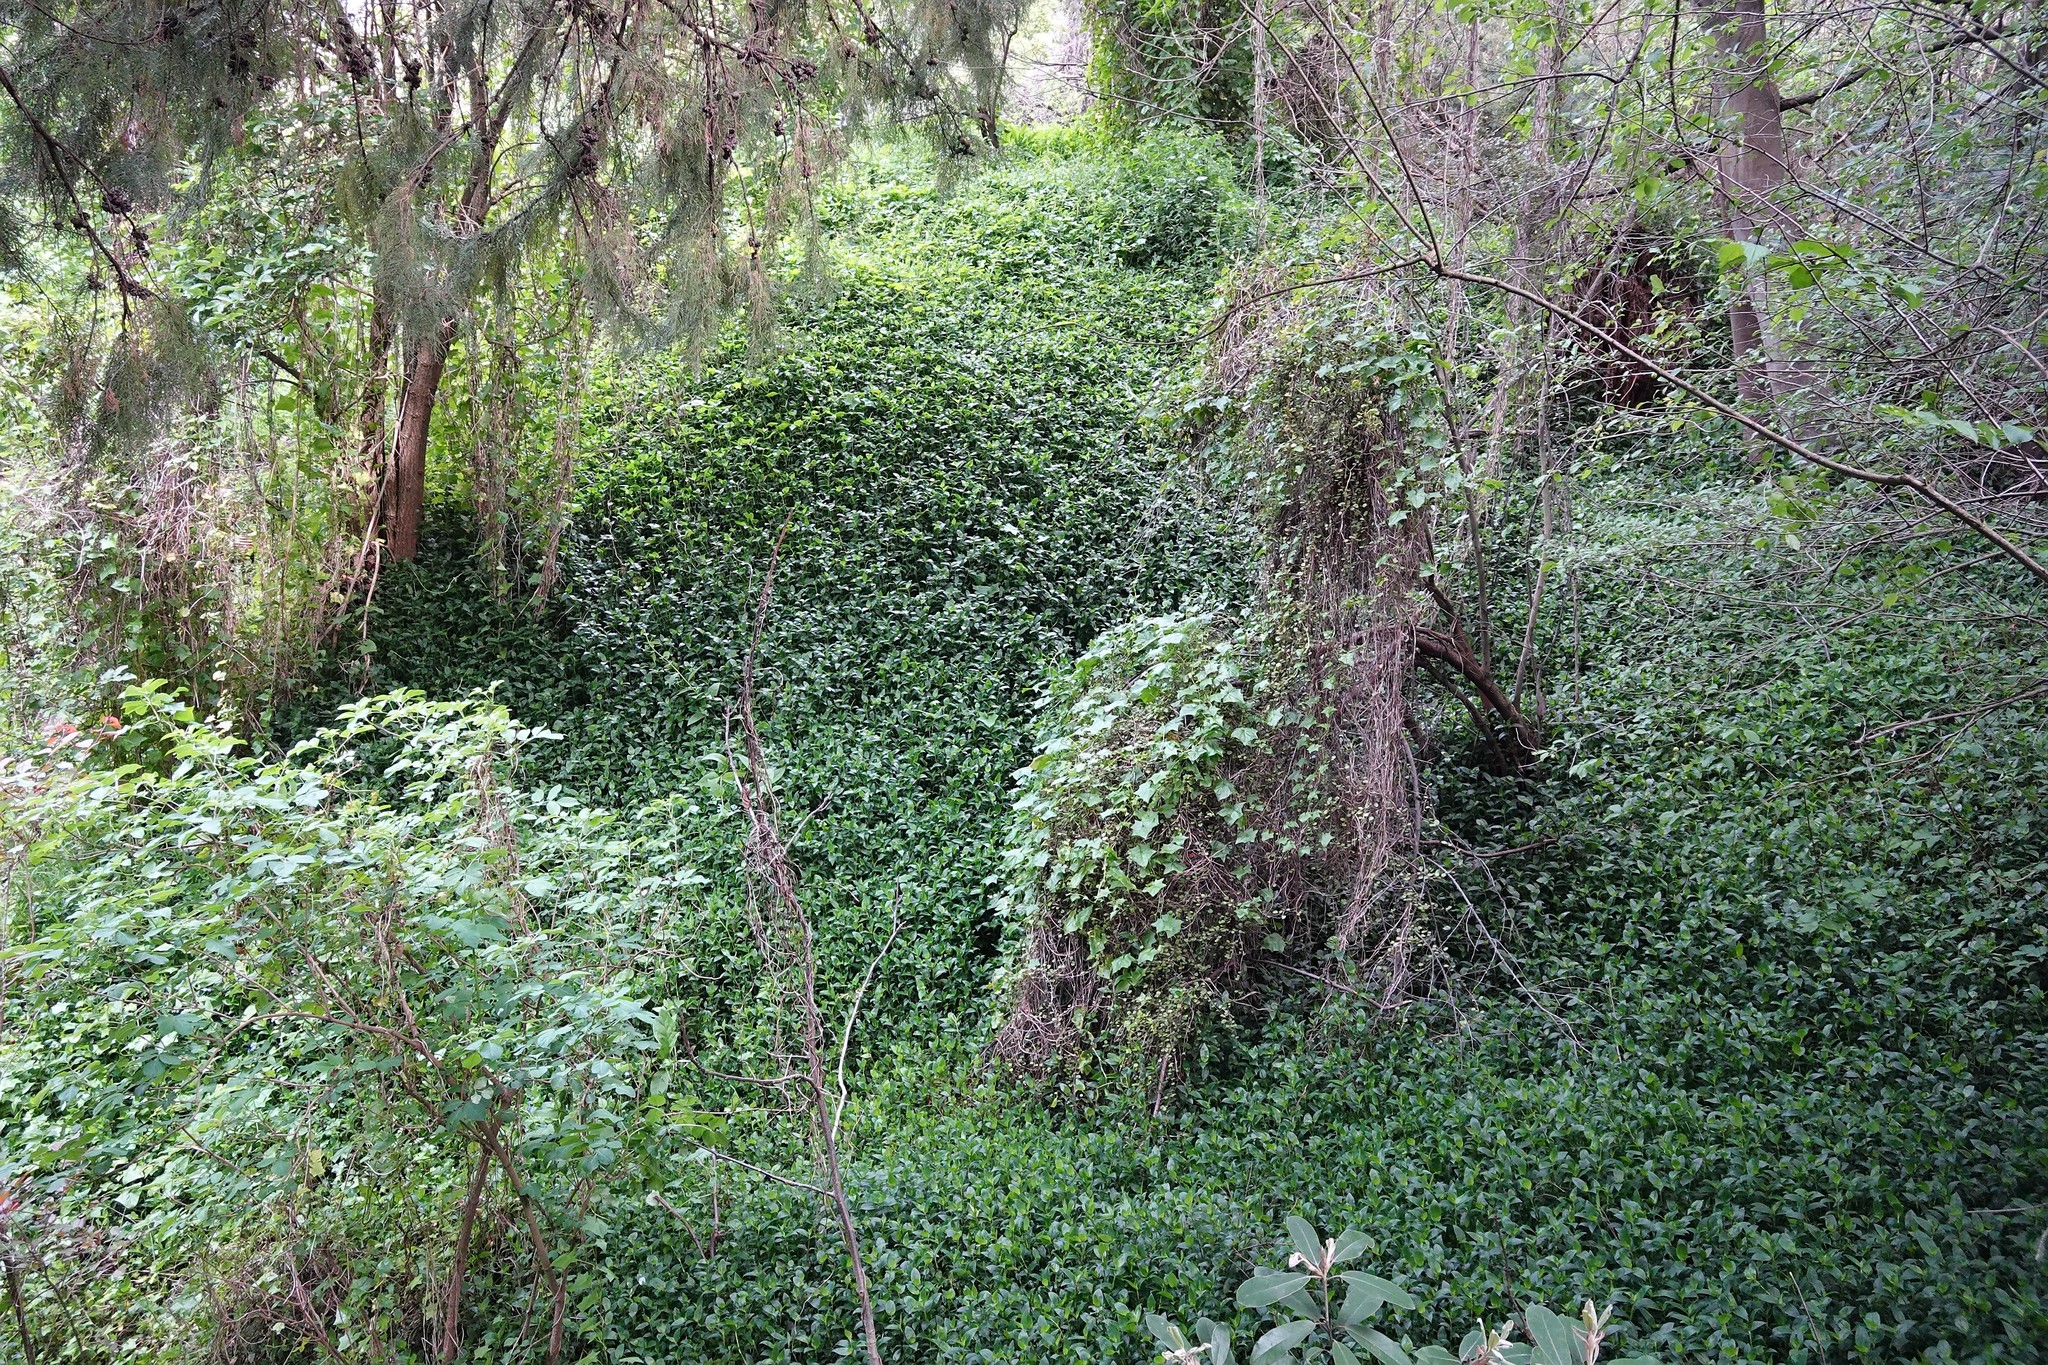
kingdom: Plantae
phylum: Tracheophyta
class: Liliopsida
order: Commelinales
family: Commelinaceae
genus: Tradescantia
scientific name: Tradescantia fluminensis
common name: Wandering-jew
